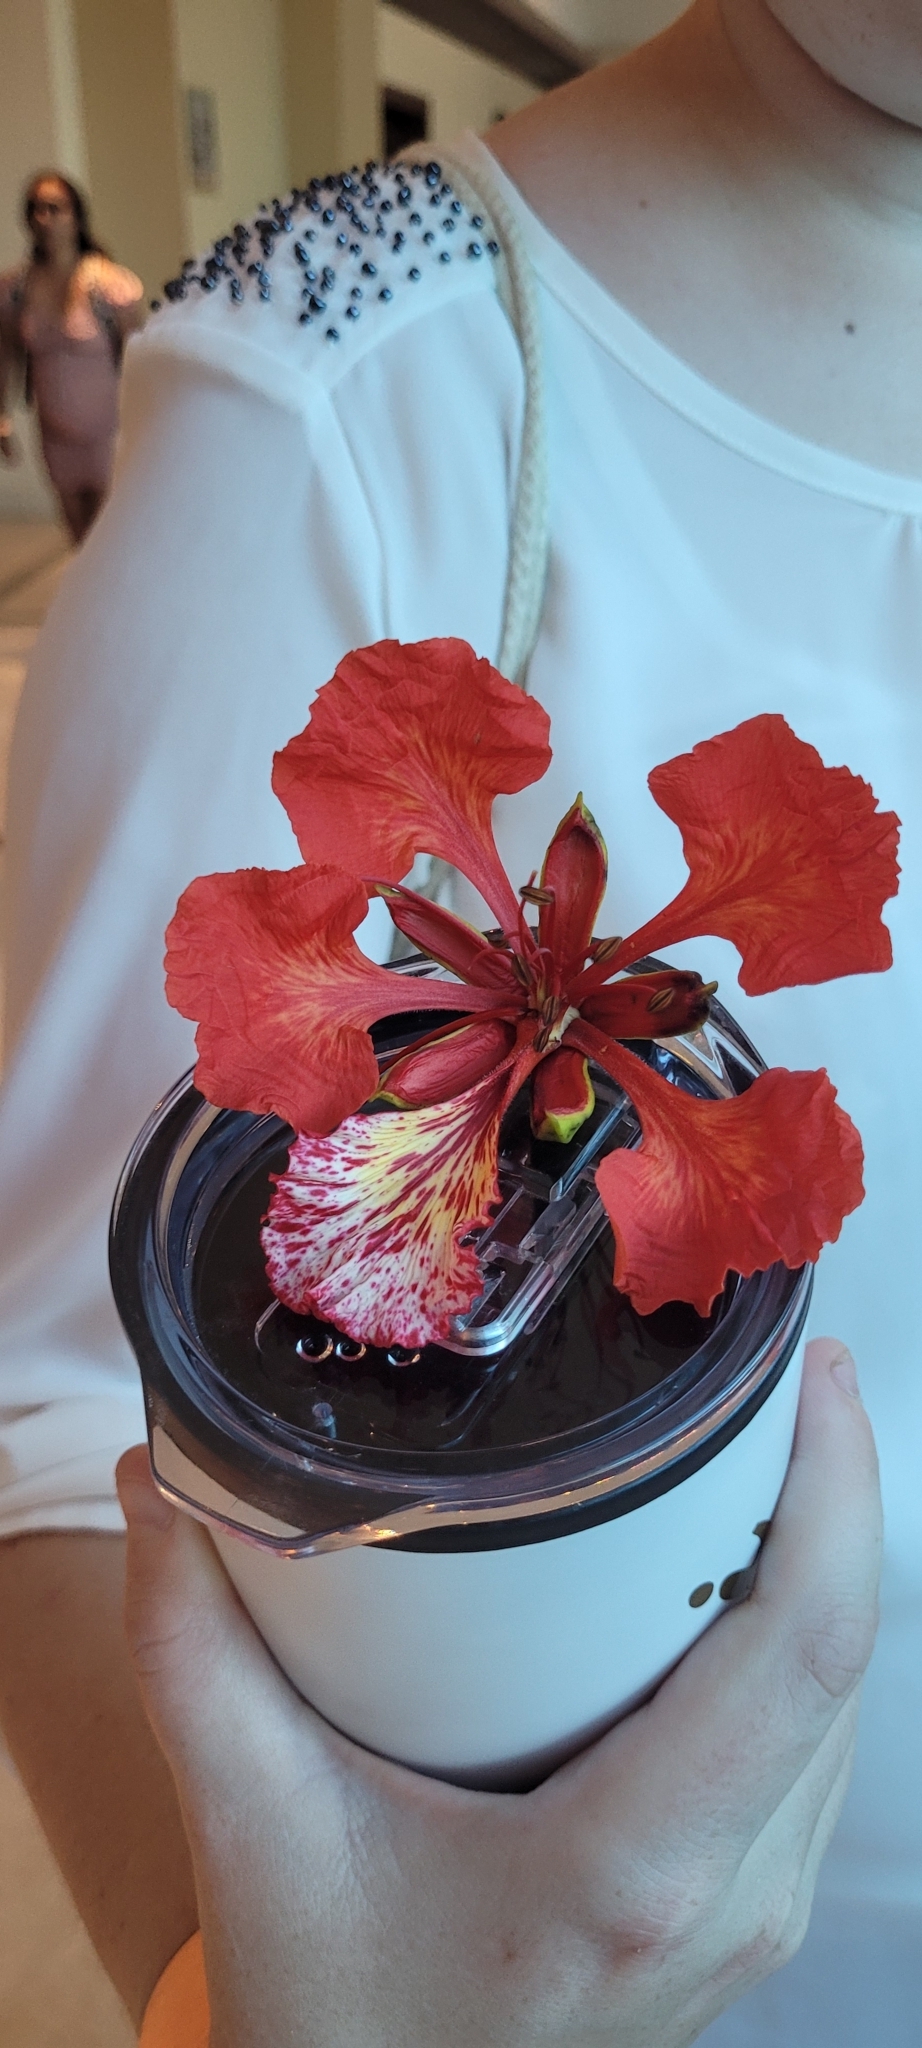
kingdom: Plantae
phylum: Tracheophyta
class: Magnoliopsida
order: Fabales
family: Fabaceae
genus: Delonix
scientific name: Delonix regia
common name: Royal poinciana
